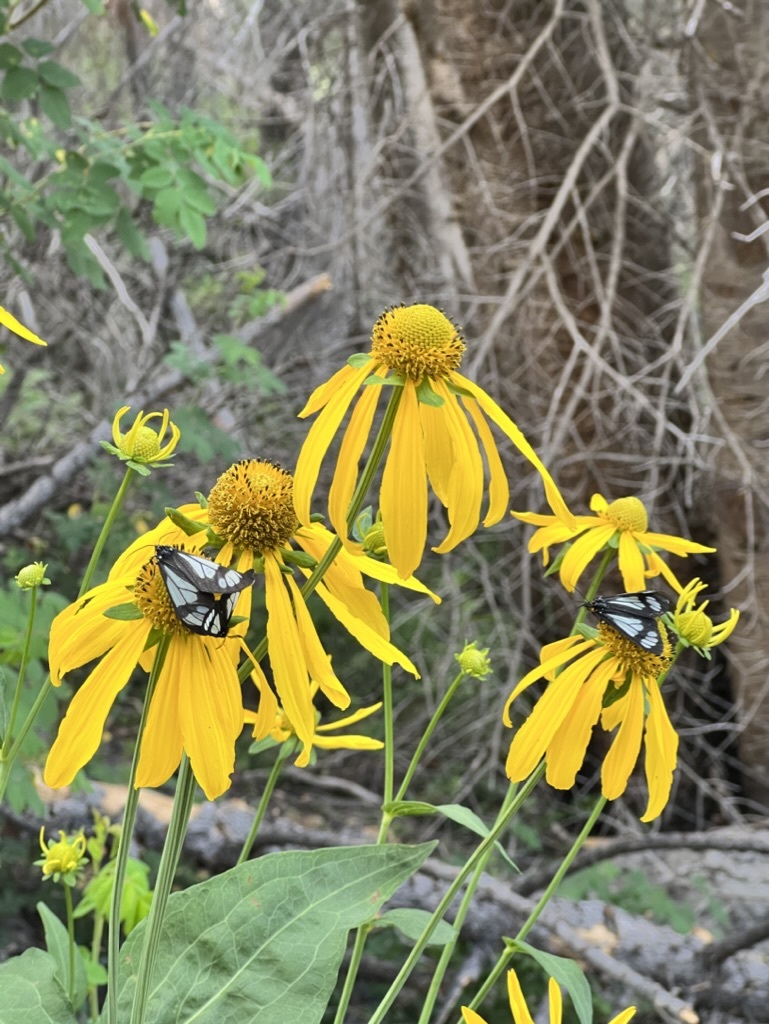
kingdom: Plantae
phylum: Tracheophyta
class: Magnoliopsida
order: Asterales
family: Asteraceae
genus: Rudbeckia
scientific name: Rudbeckia laciniata
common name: Coneflower
